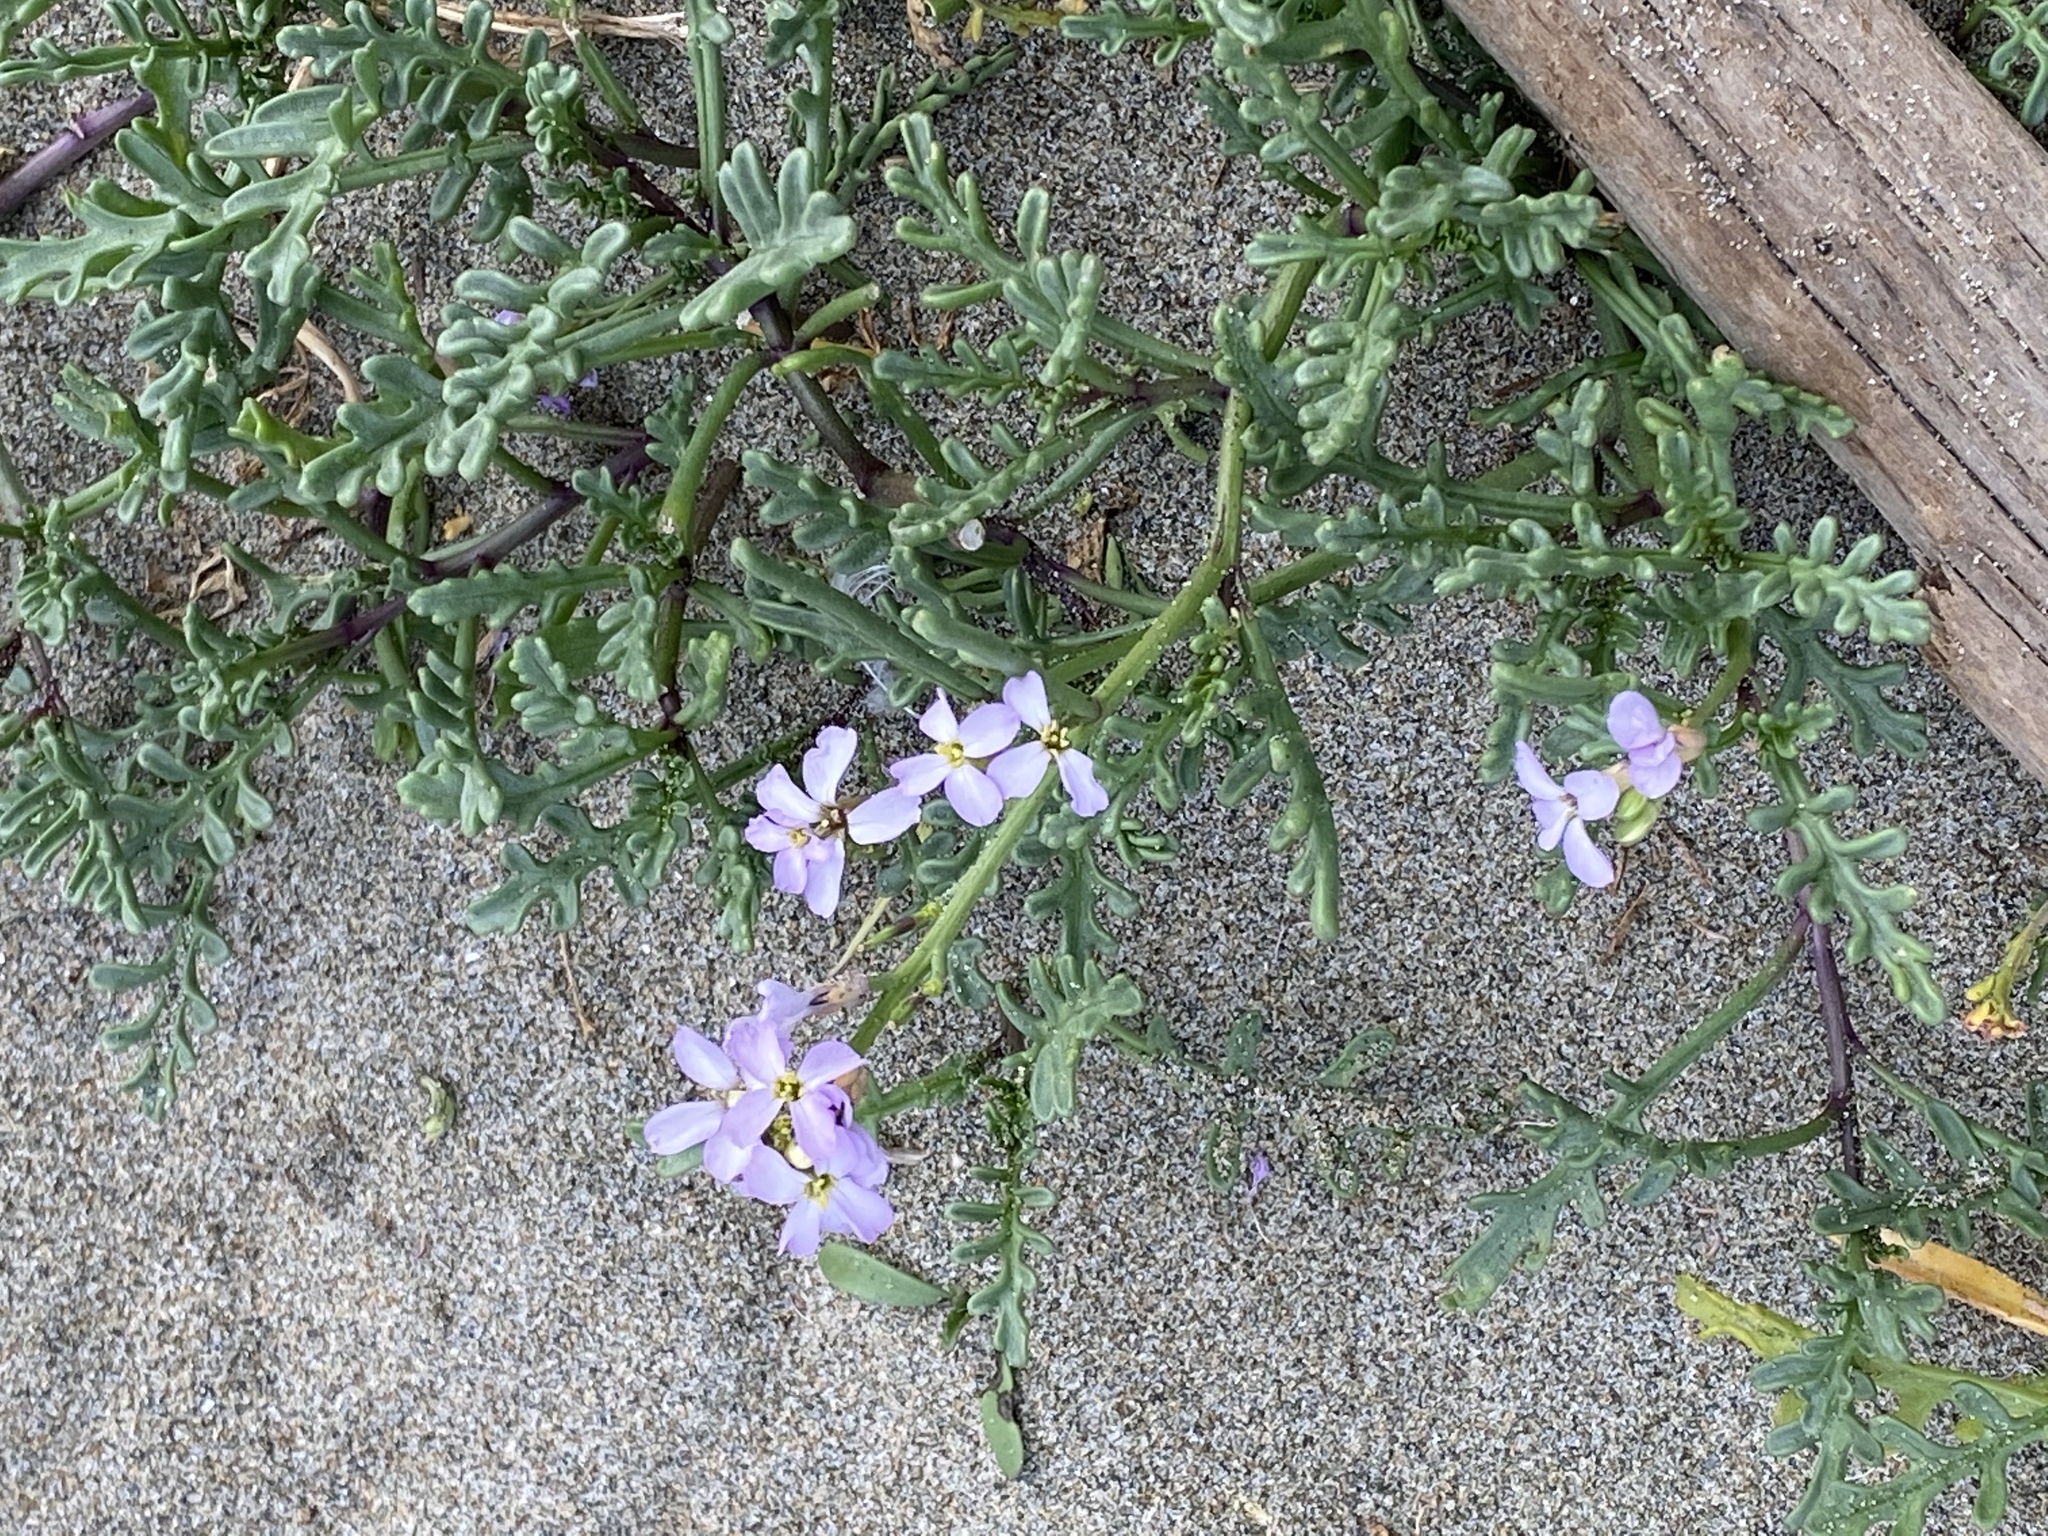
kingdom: Plantae
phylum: Tracheophyta
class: Magnoliopsida
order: Brassicales
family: Brassicaceae
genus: Cakile
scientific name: Cakile maritima
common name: Sea rocket
